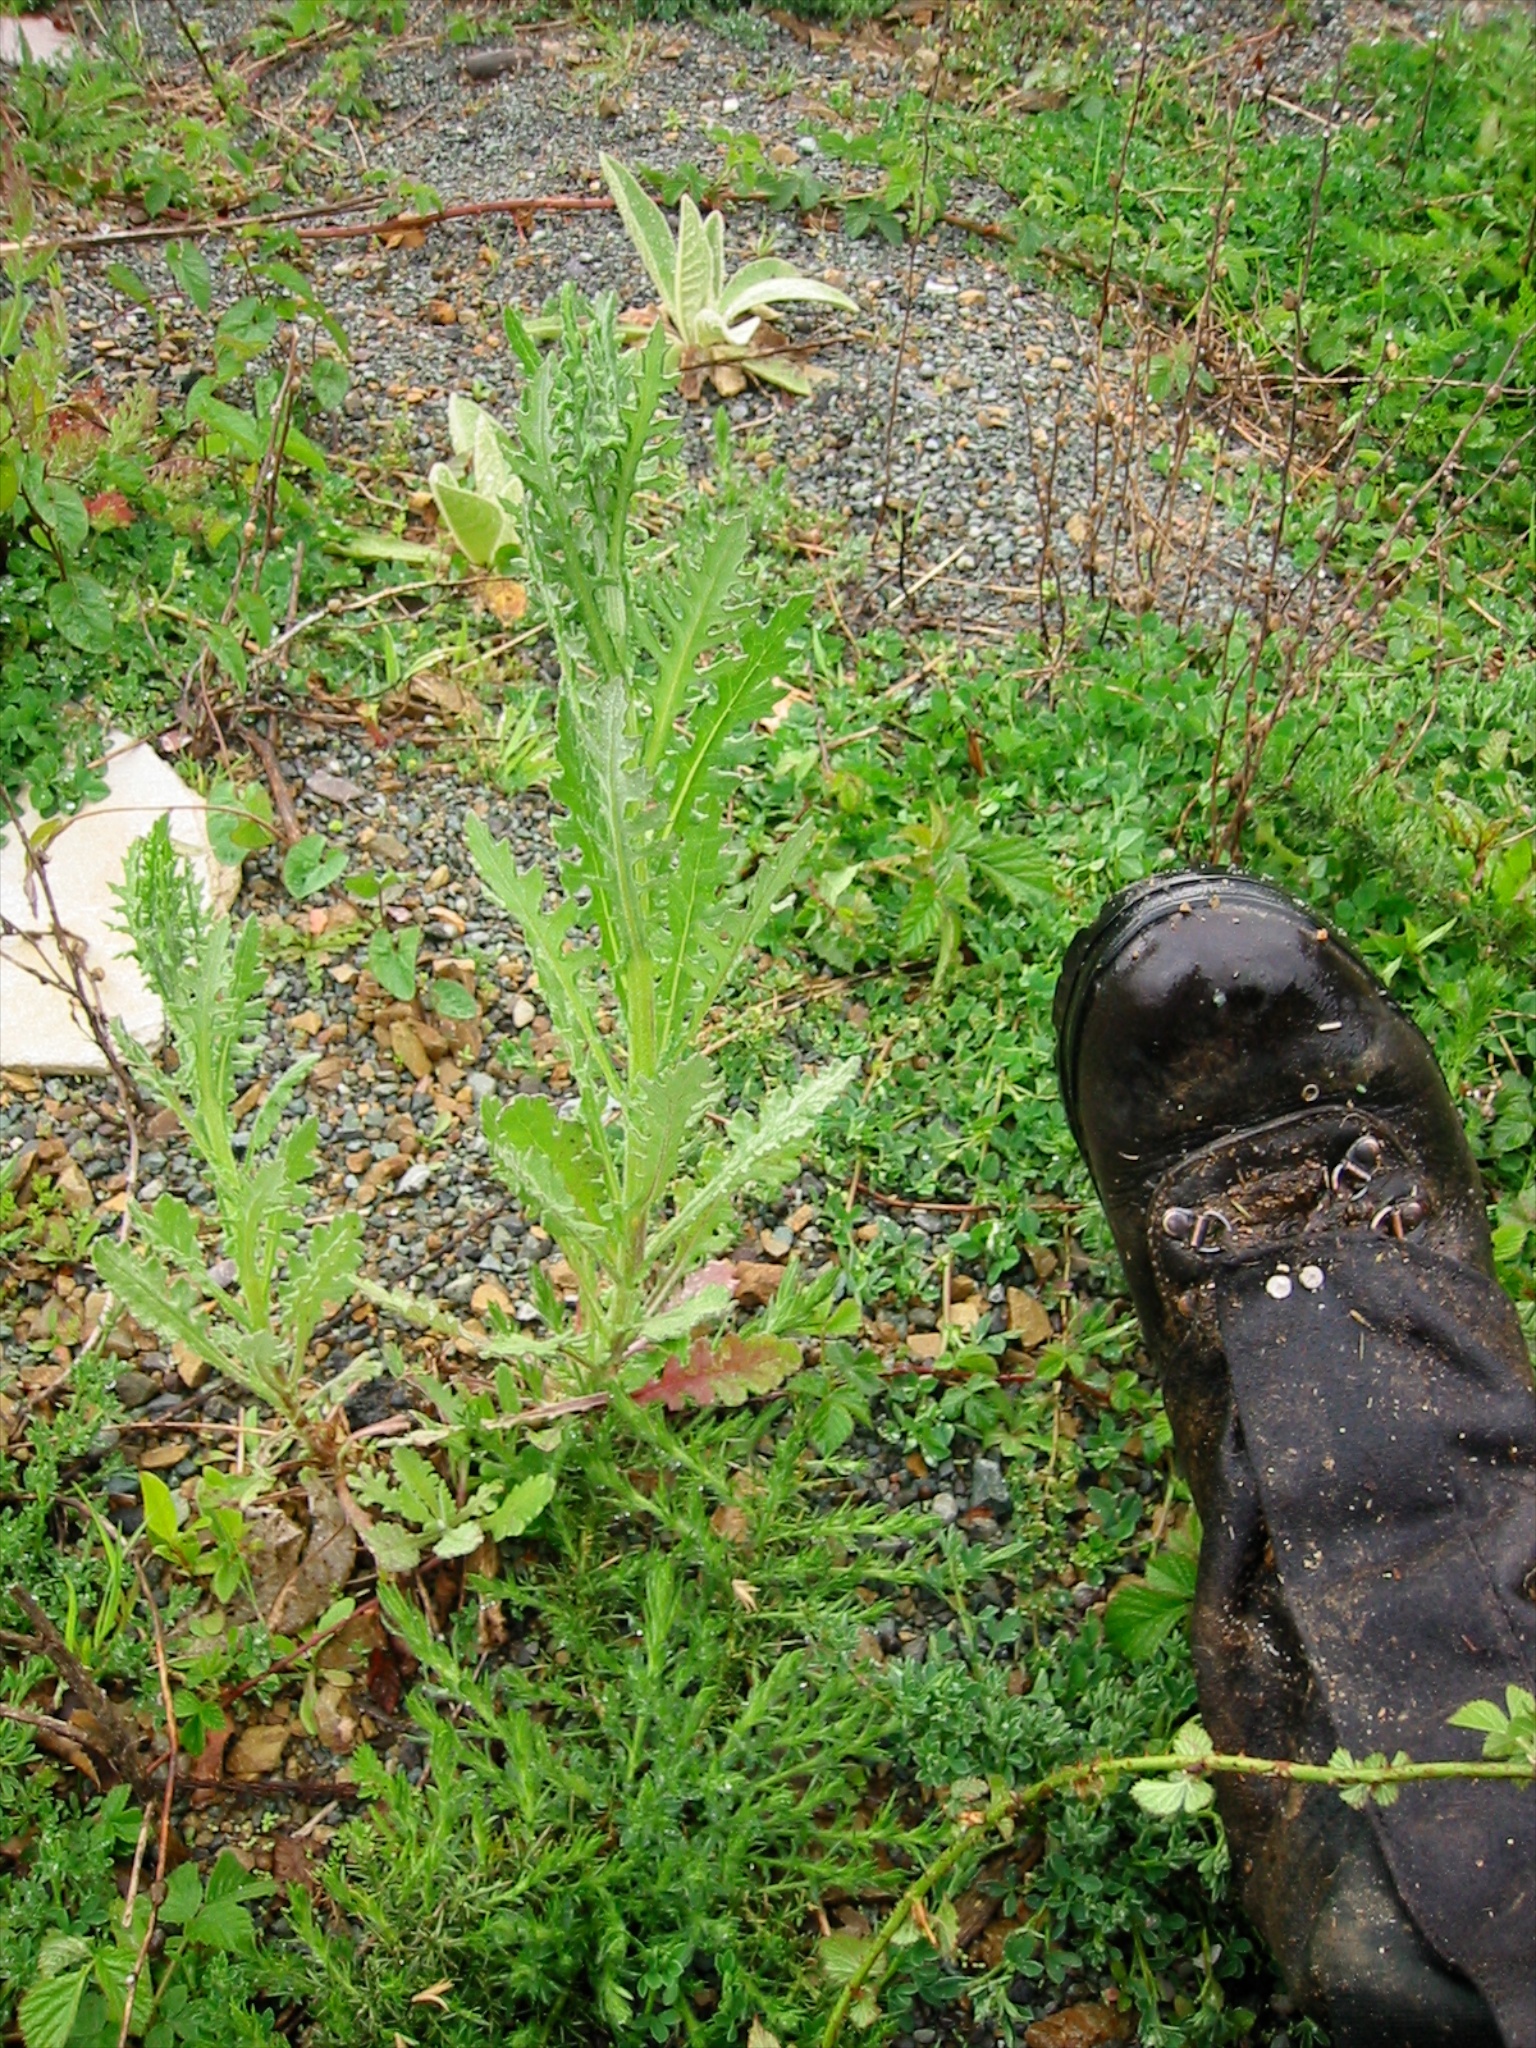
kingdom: Plantae
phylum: Tracheophyta
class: Magnoliopsida
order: Asterales
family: Asteraceae
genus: Senecio
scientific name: Senecio glomeratus
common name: Cutleaf burnweed
